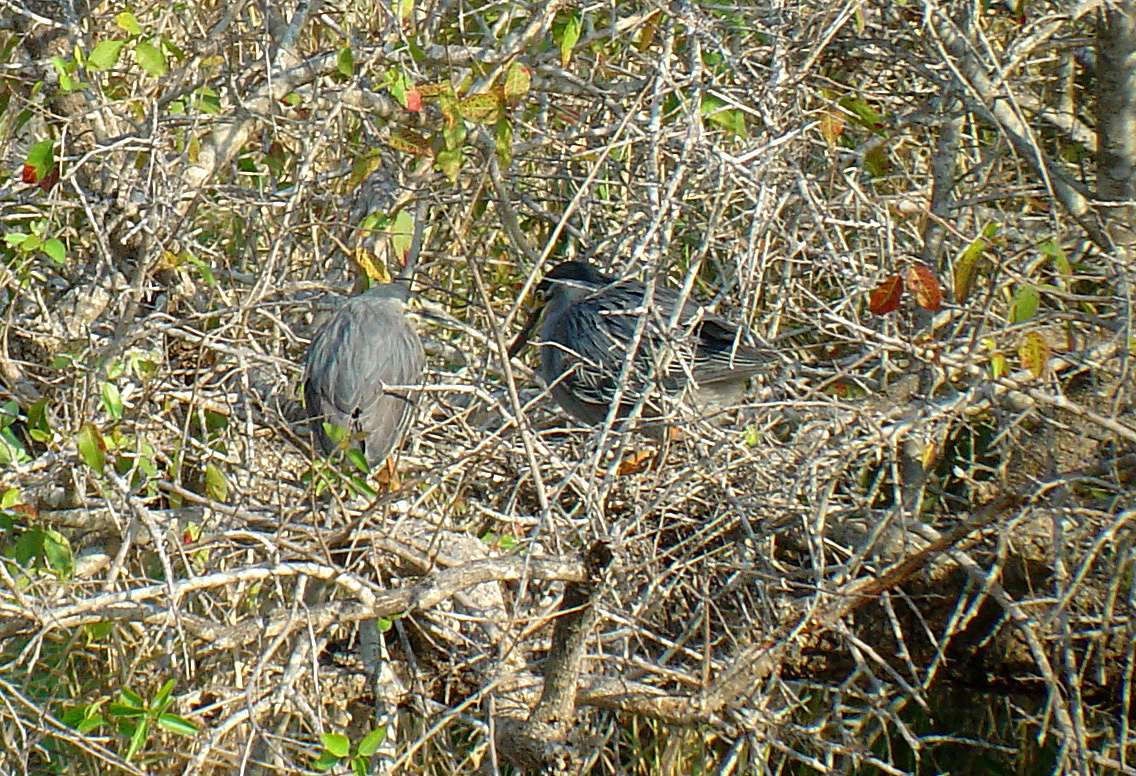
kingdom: Animalia
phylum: Chordata
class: Aves
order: Pelecaniformes
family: Ardeidae
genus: Butorides
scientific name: Butorides striata
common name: Striated heron
